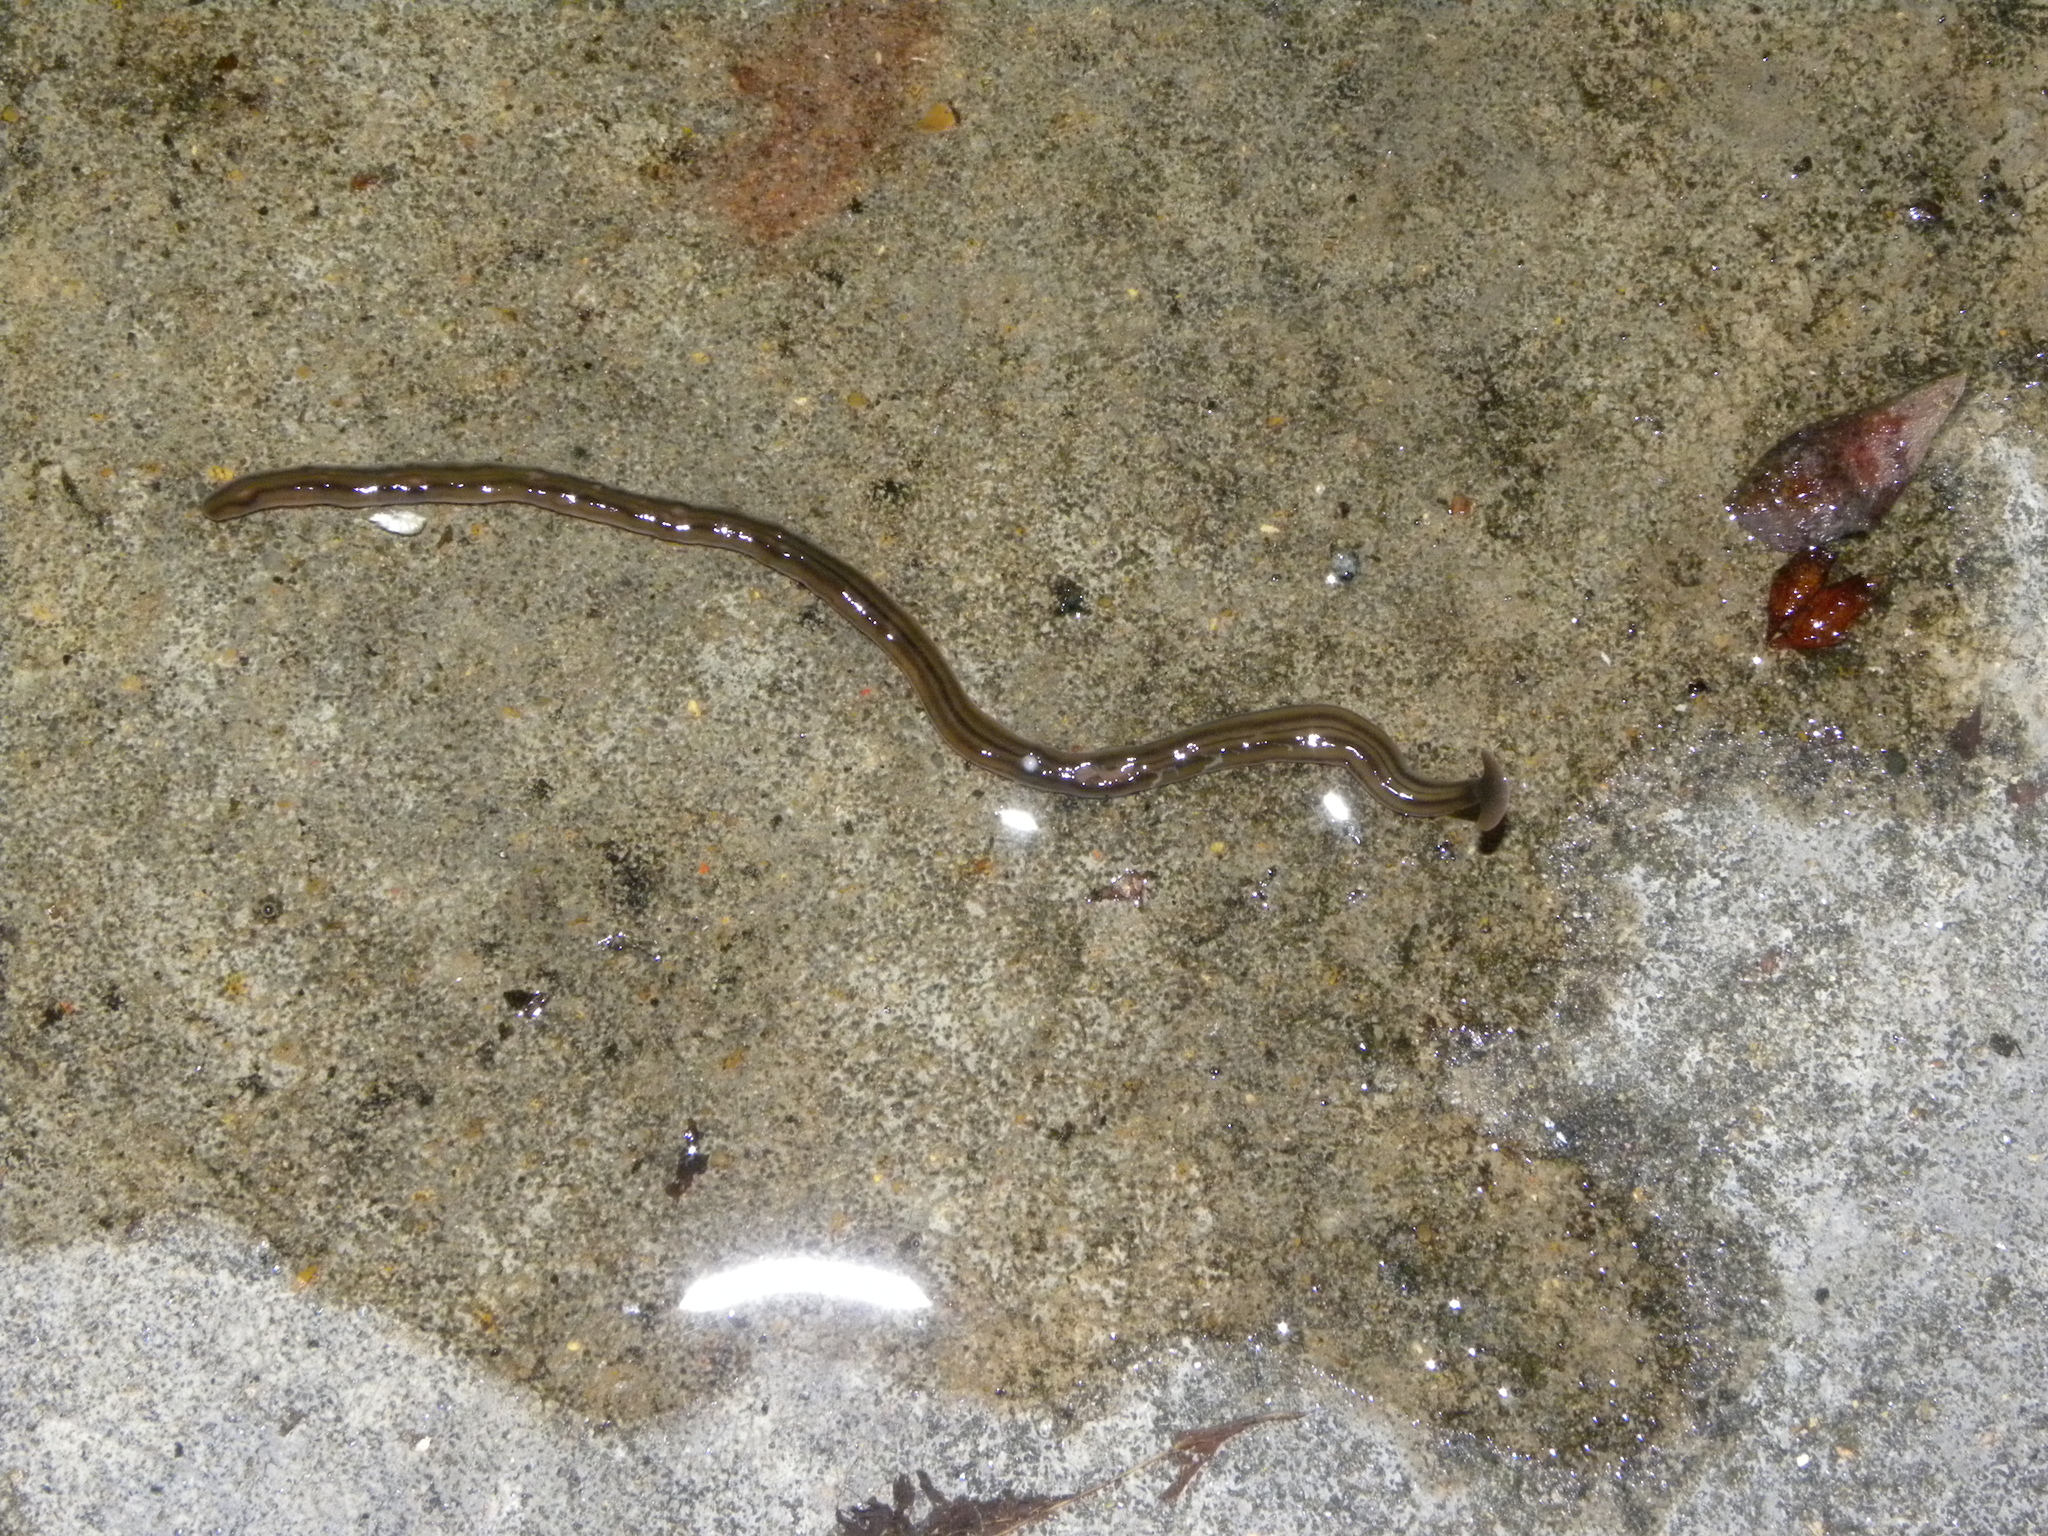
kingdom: Animalia
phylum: Platyhelminthes
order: Tricladida
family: Geoplanidae
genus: Bipalium
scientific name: Bipalium kewense
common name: Hammerhead flatworm
